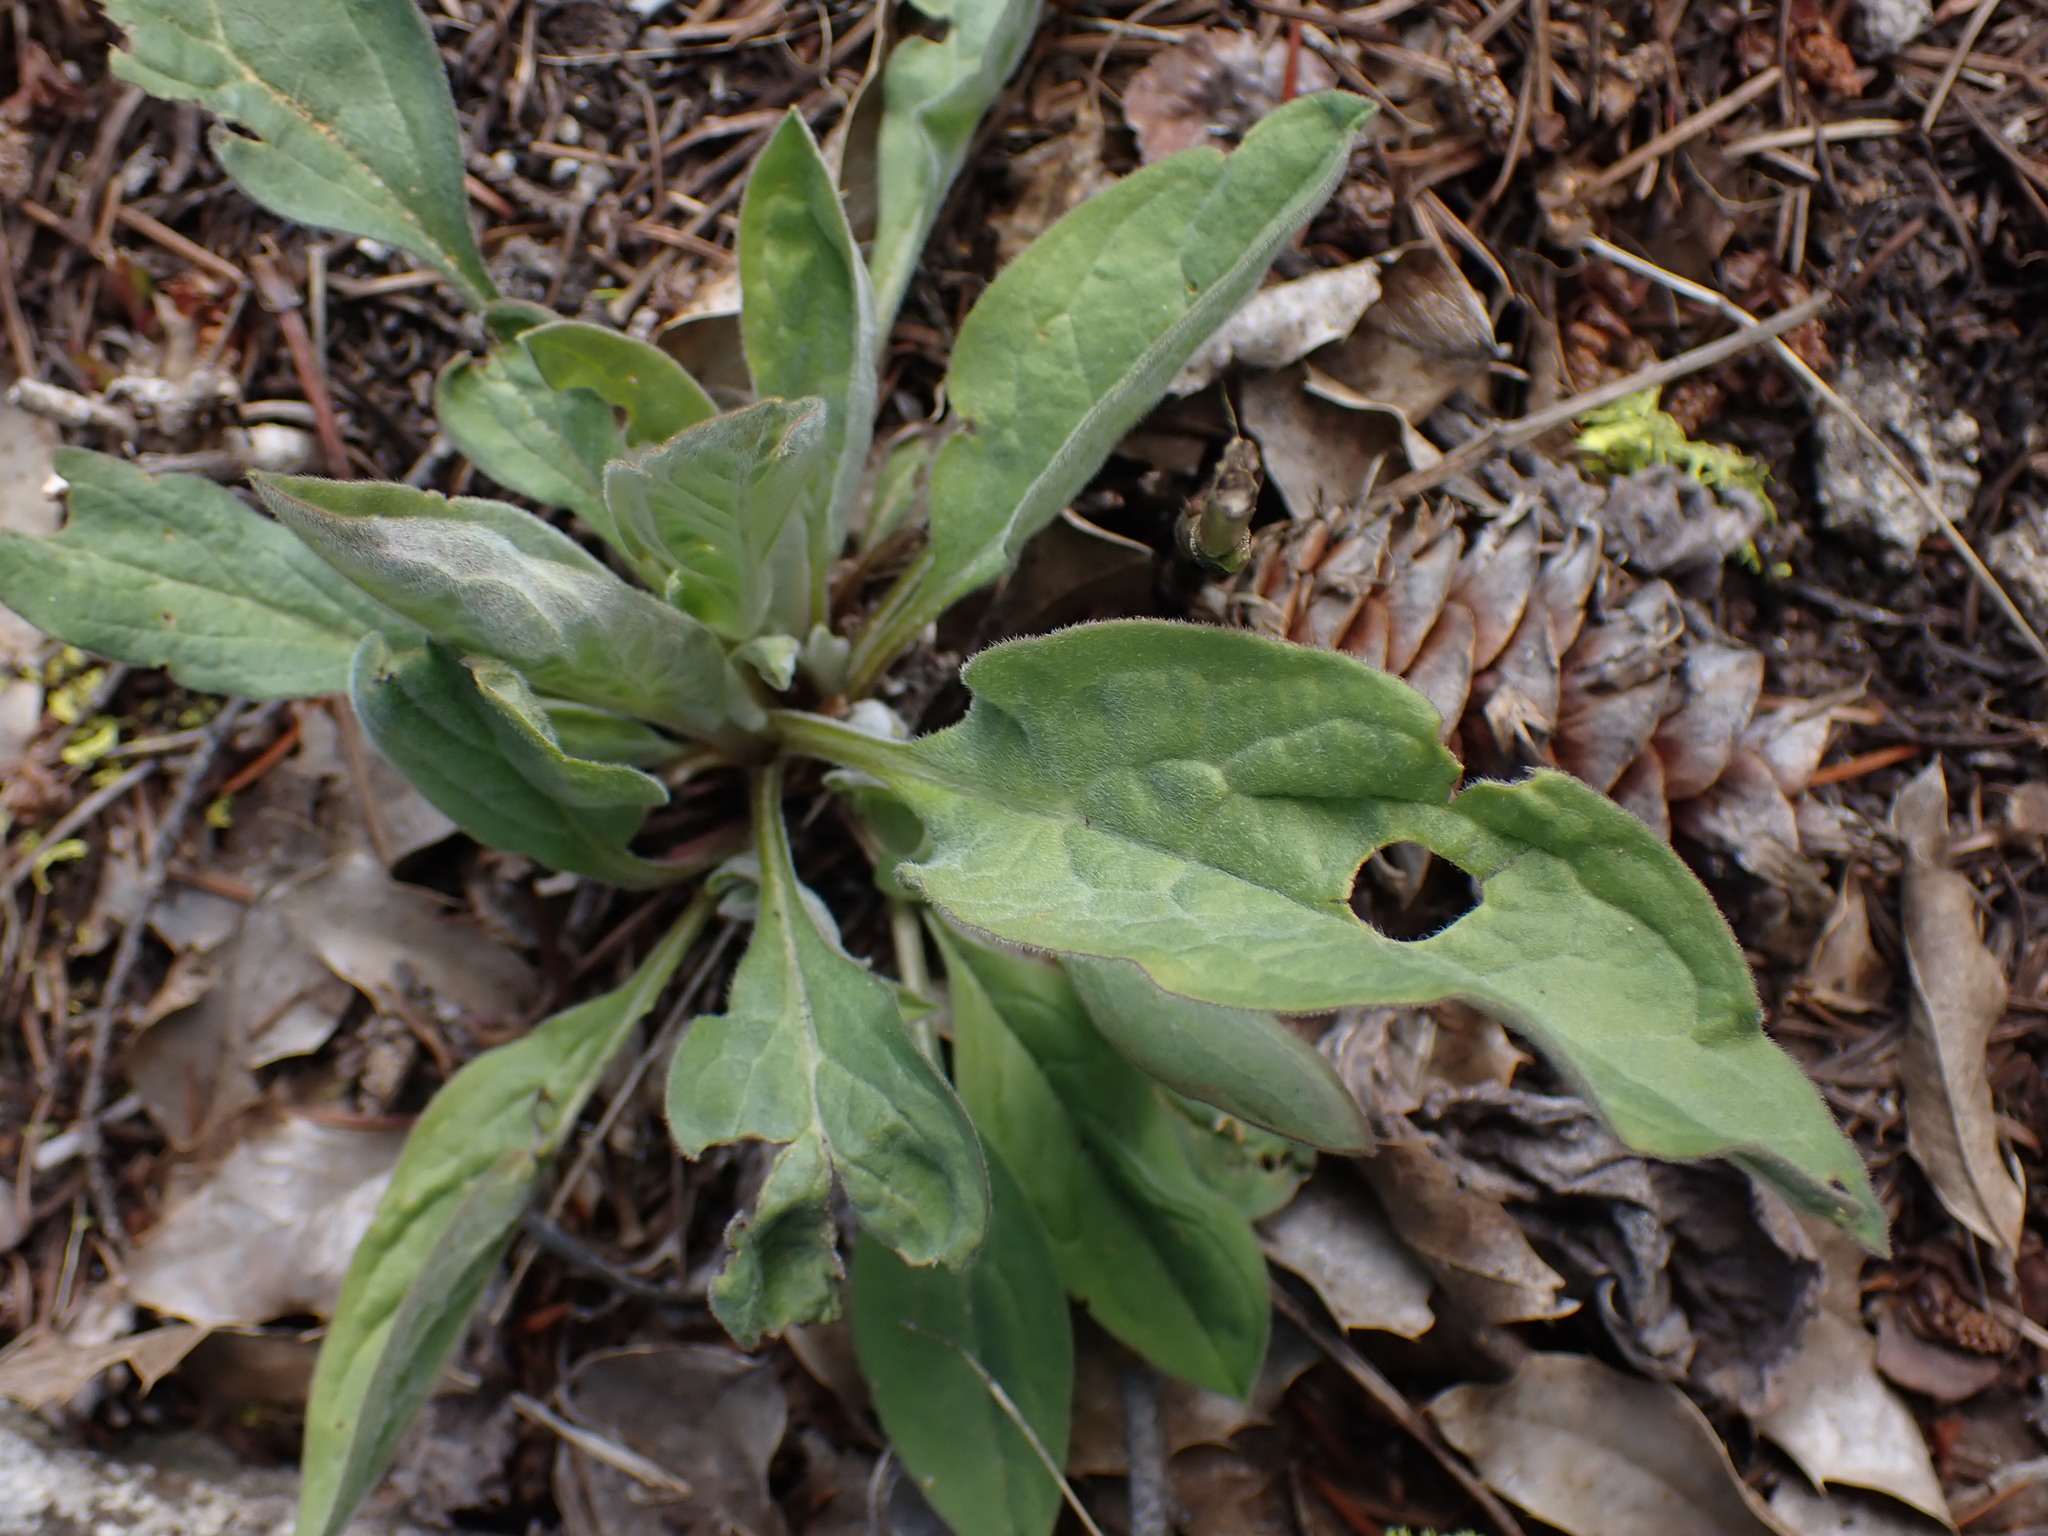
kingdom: Plantae
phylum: Tracheophyta
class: Magnoliopsida
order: Boraginales
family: Boraginaceae
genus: Cynoglossum
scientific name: Cynoglossum officinale
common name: Hound's-tongue
